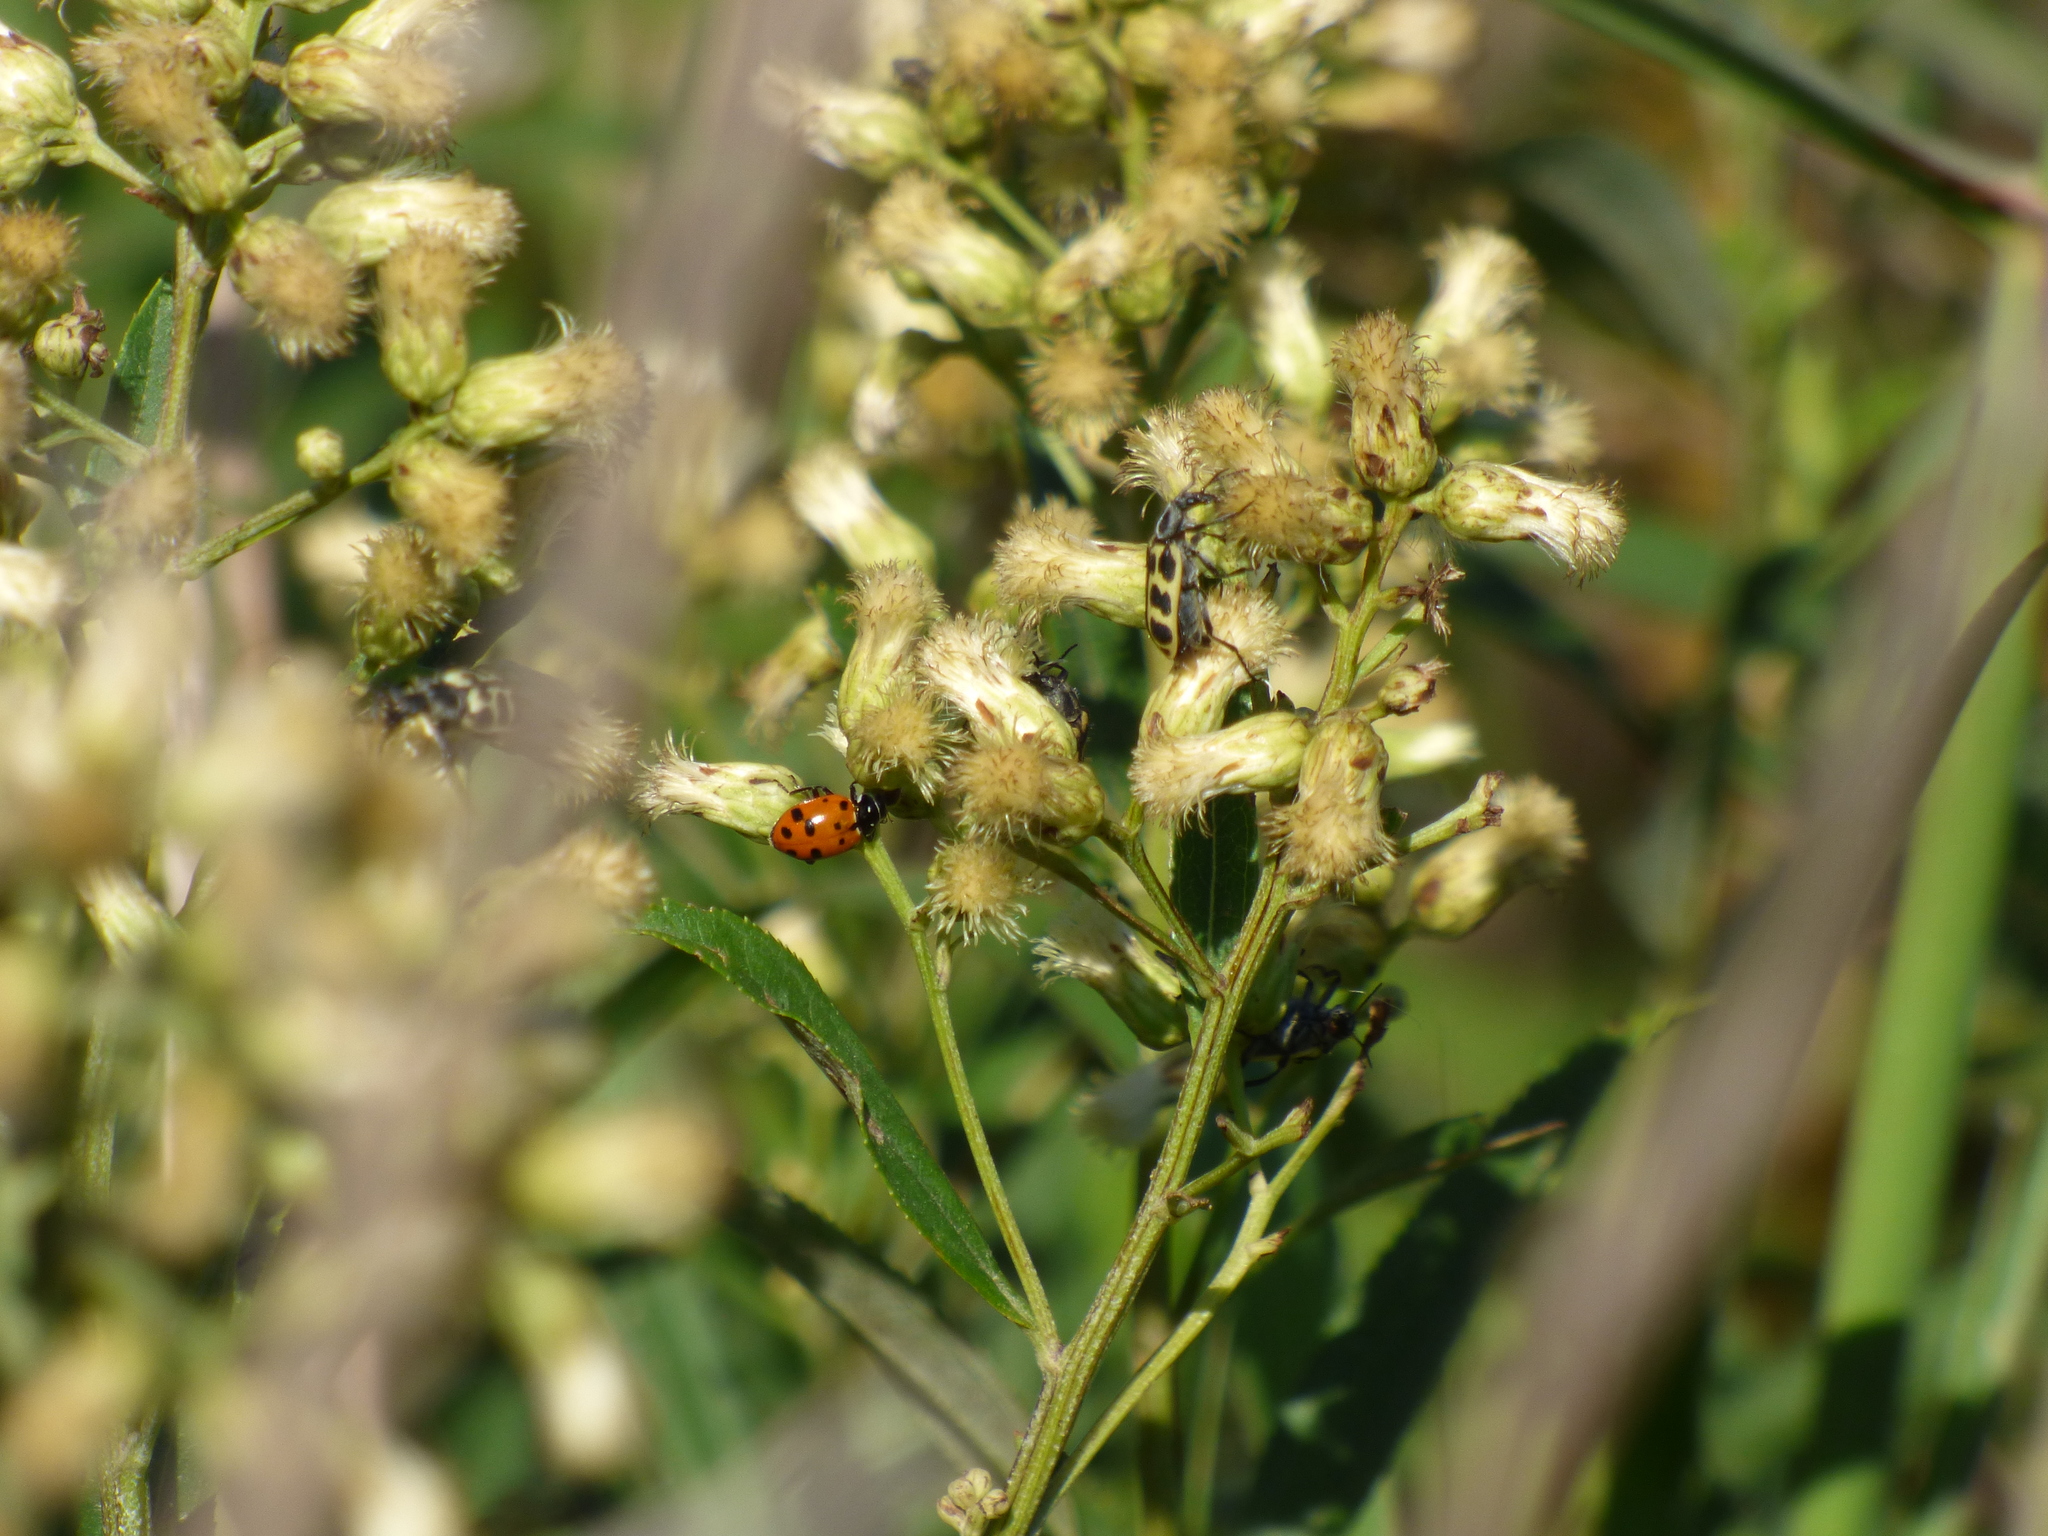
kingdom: Animalia
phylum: Arthropoda
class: Insecta
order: Coleoptera
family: Coccinellidae
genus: Hippodamia
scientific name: Hippodamia convergens
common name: Convergent lady beetle
